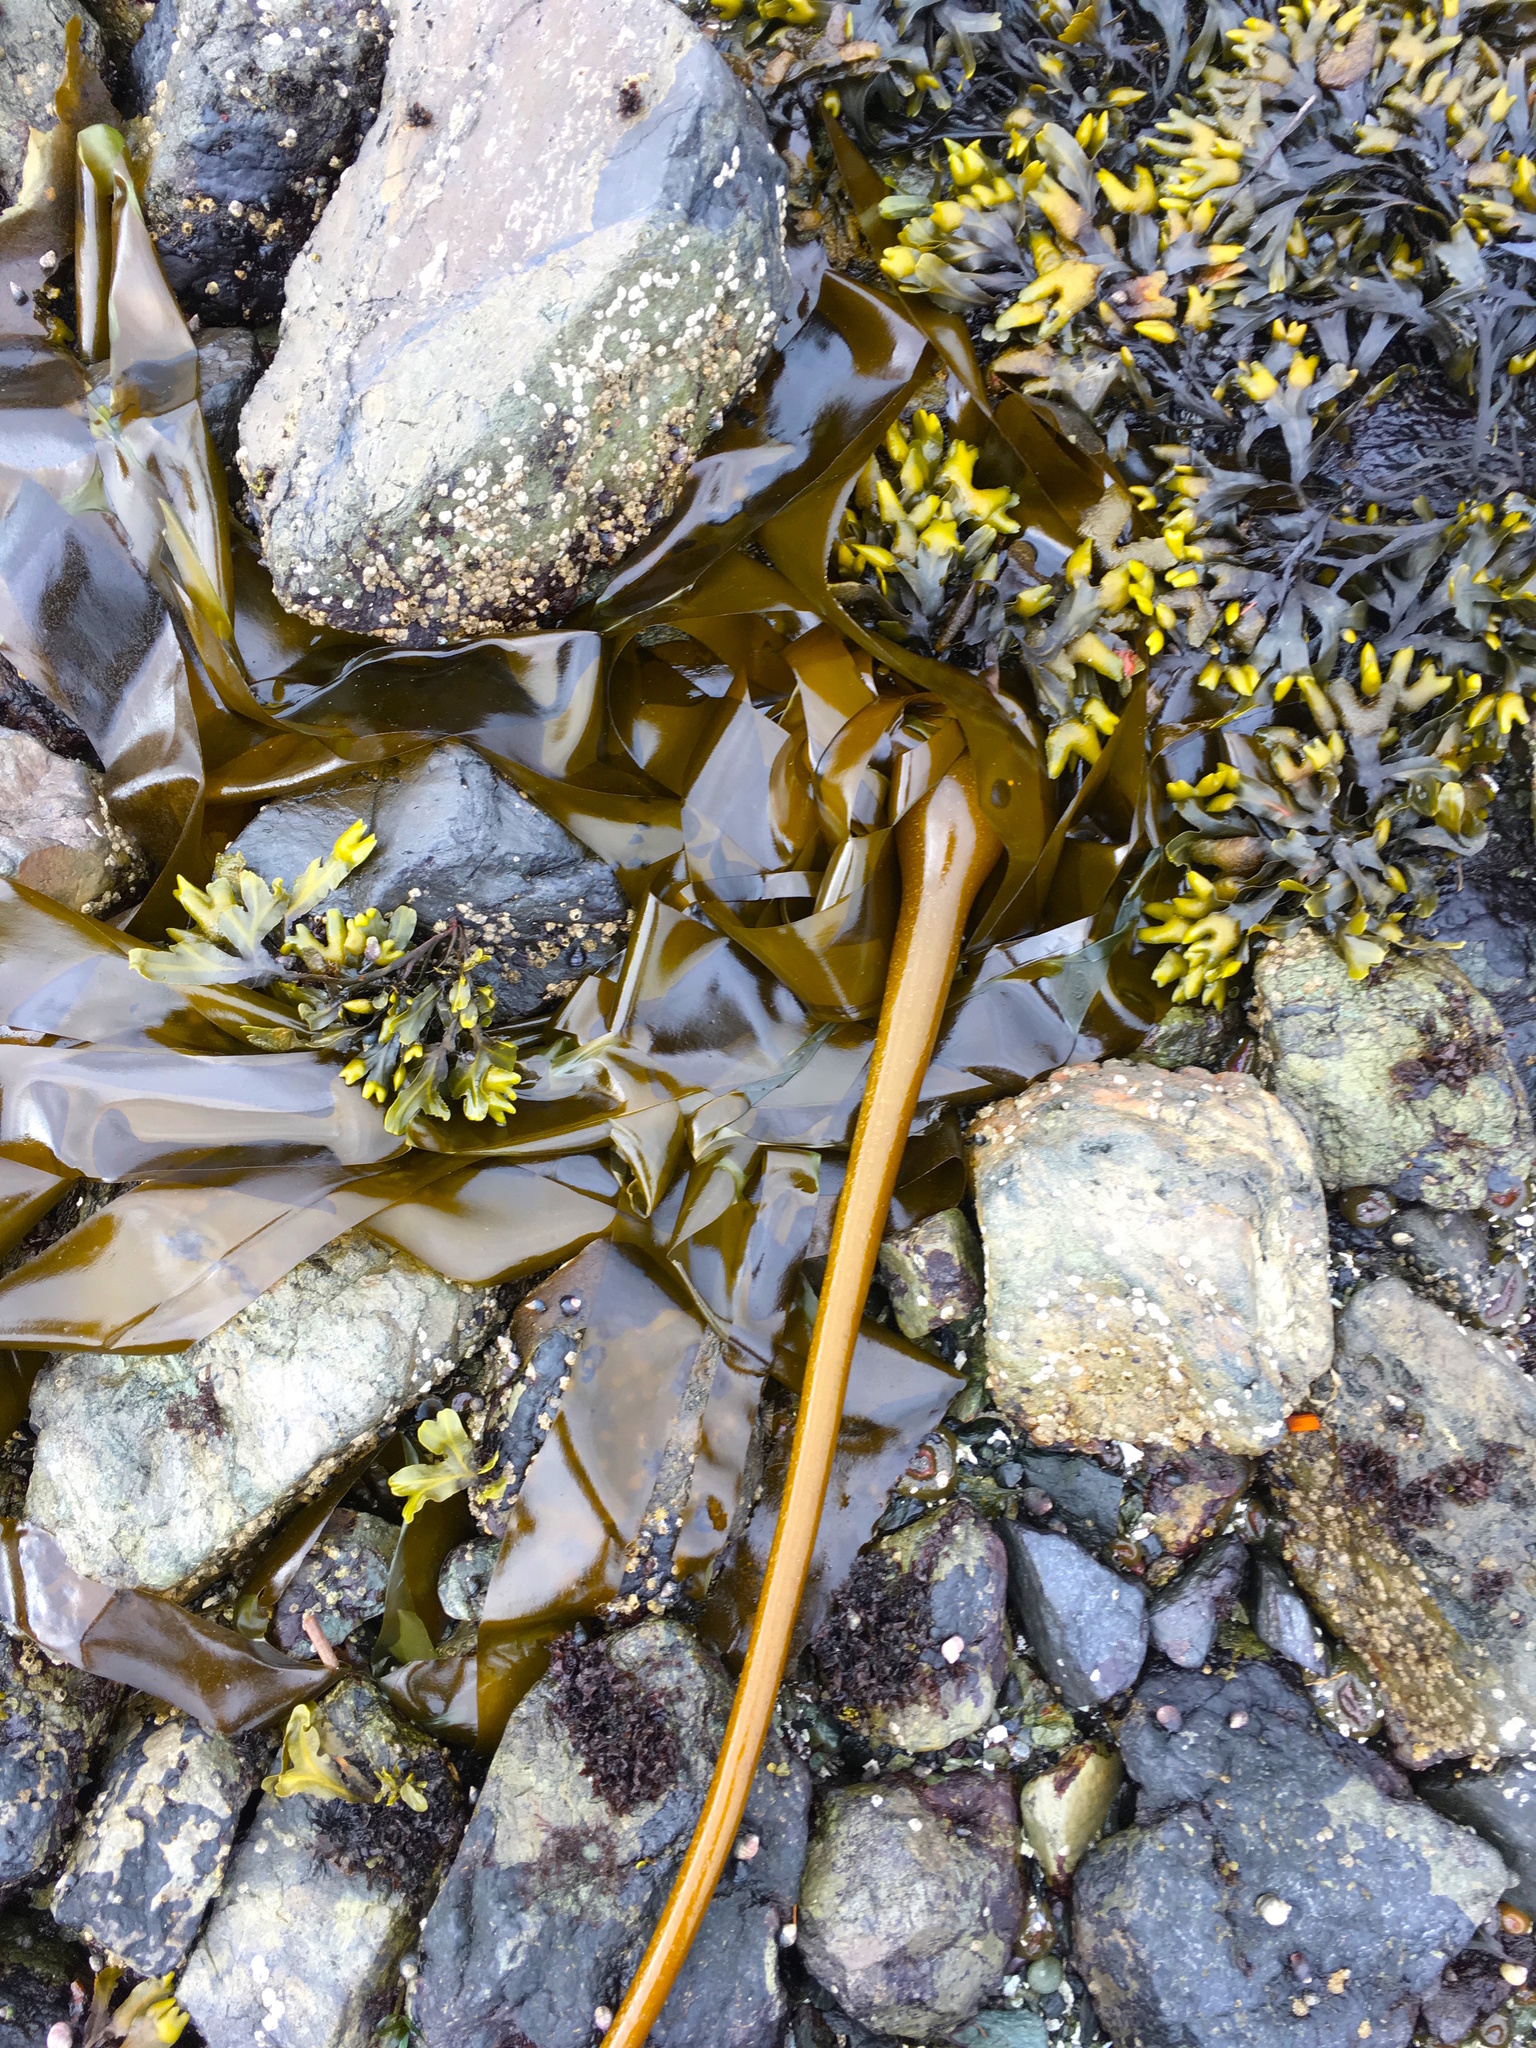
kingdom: Chromista
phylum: Ochrophyta
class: Phaeophyceae
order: Laminariales
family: Laminariaceae
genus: Nereocystis
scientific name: Nereocystis luetkeana
